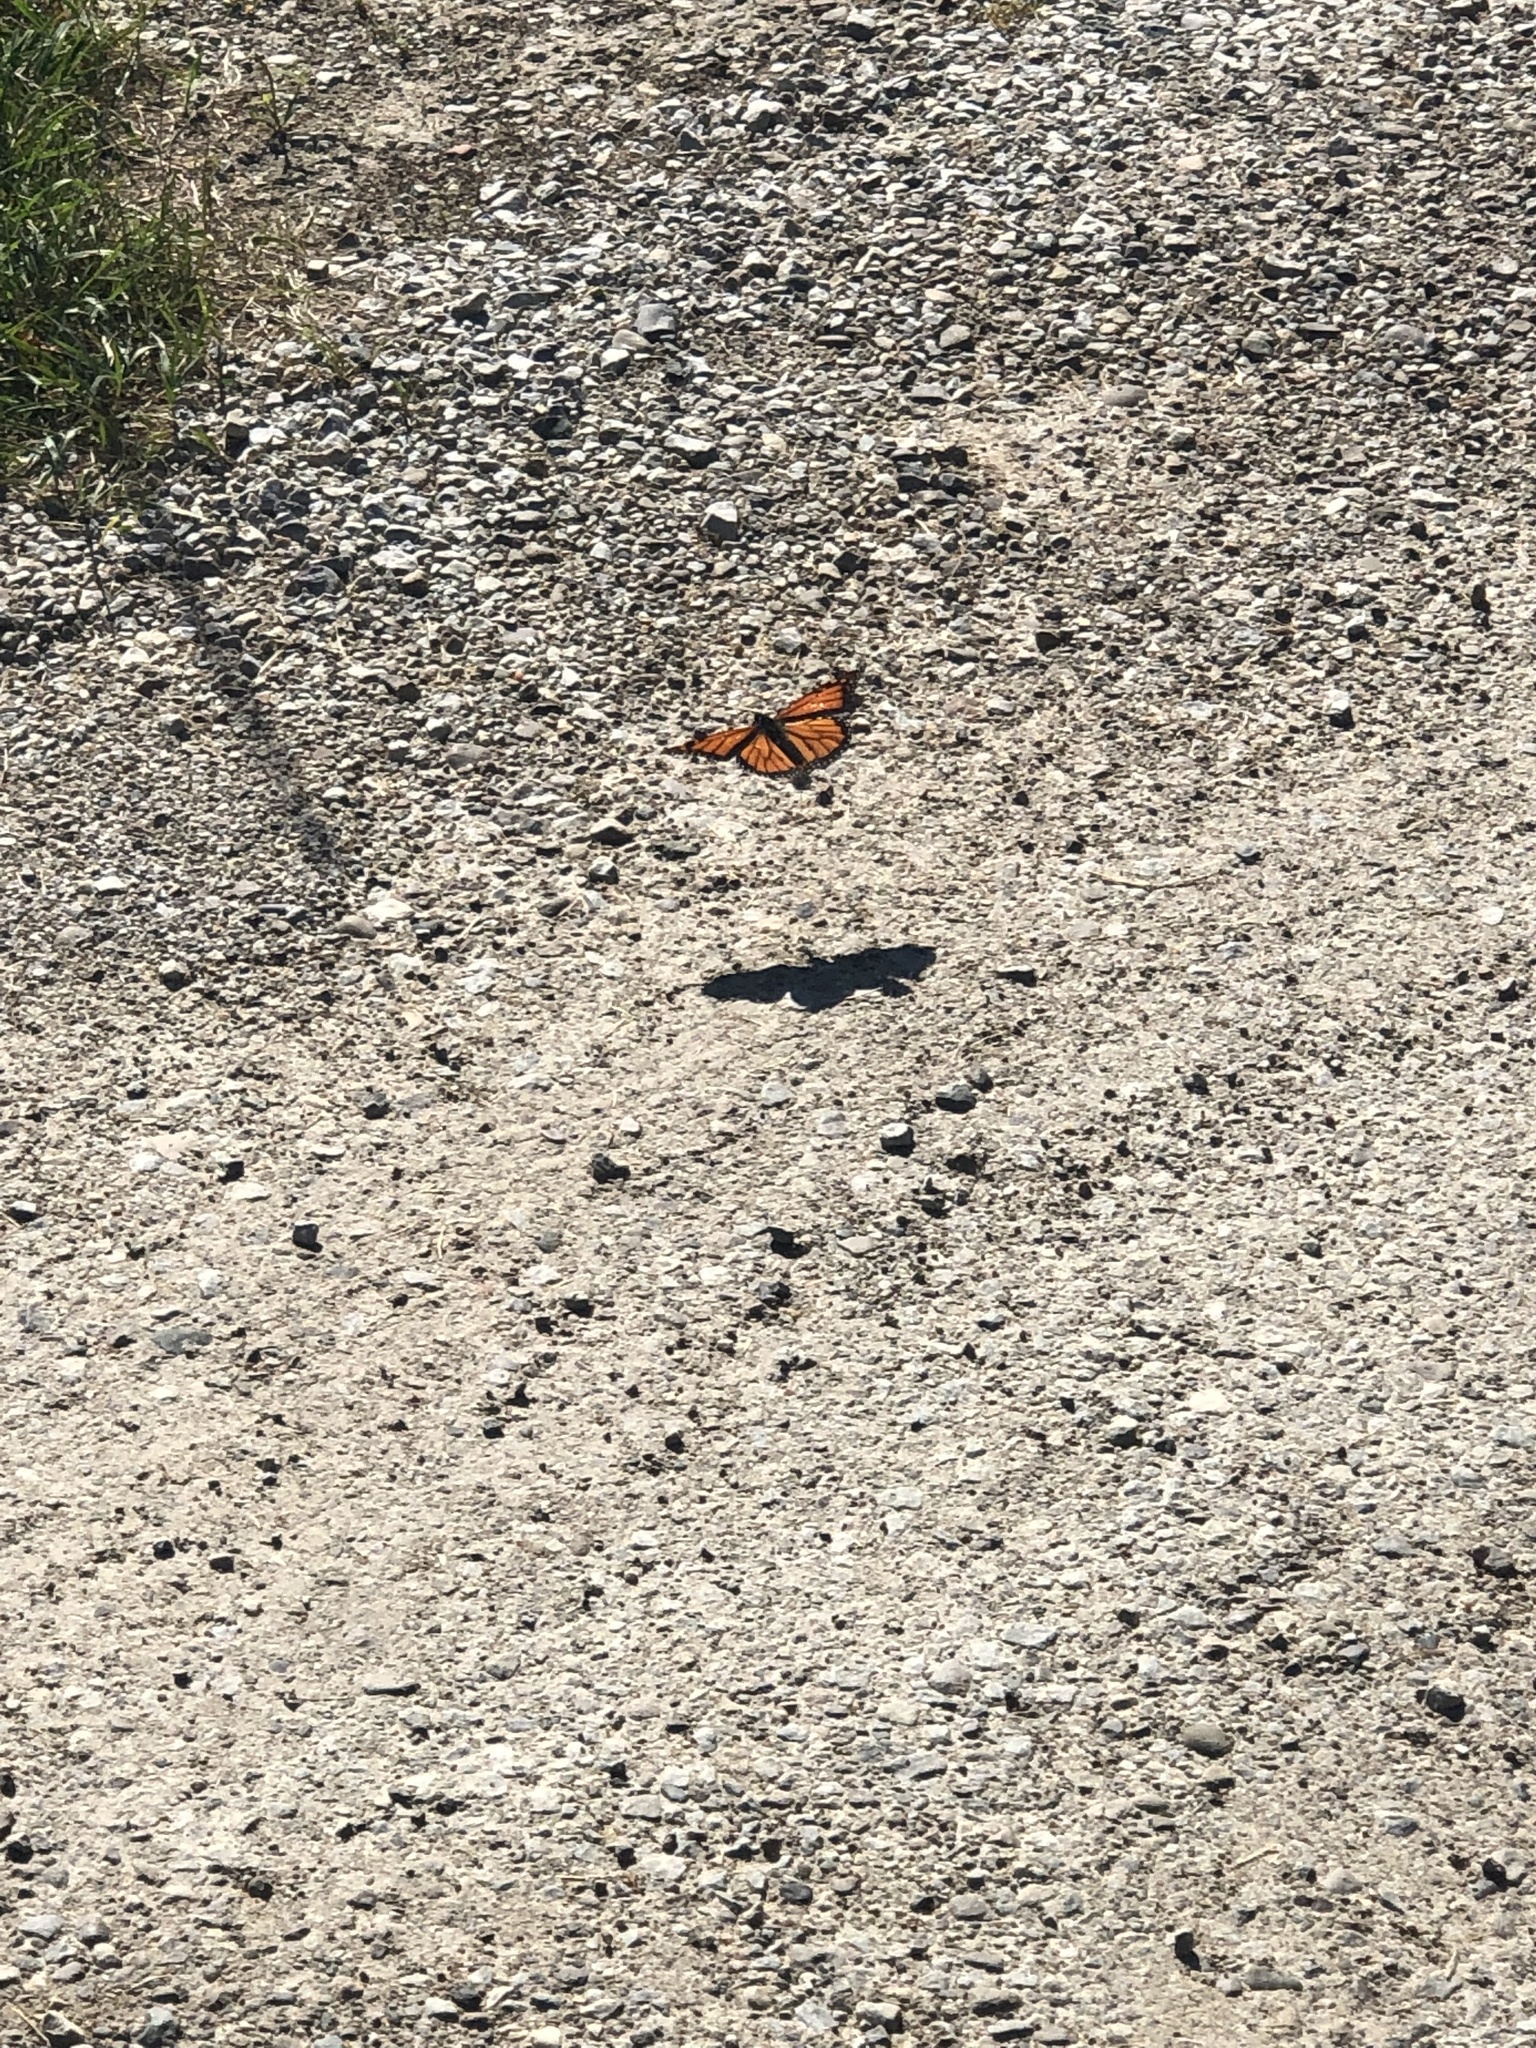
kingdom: Animalia
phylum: Arthropoda
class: Insecta
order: Lepidoptera
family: Nymphalidae
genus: Danaus
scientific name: Danaus plexippus
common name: Monarch
